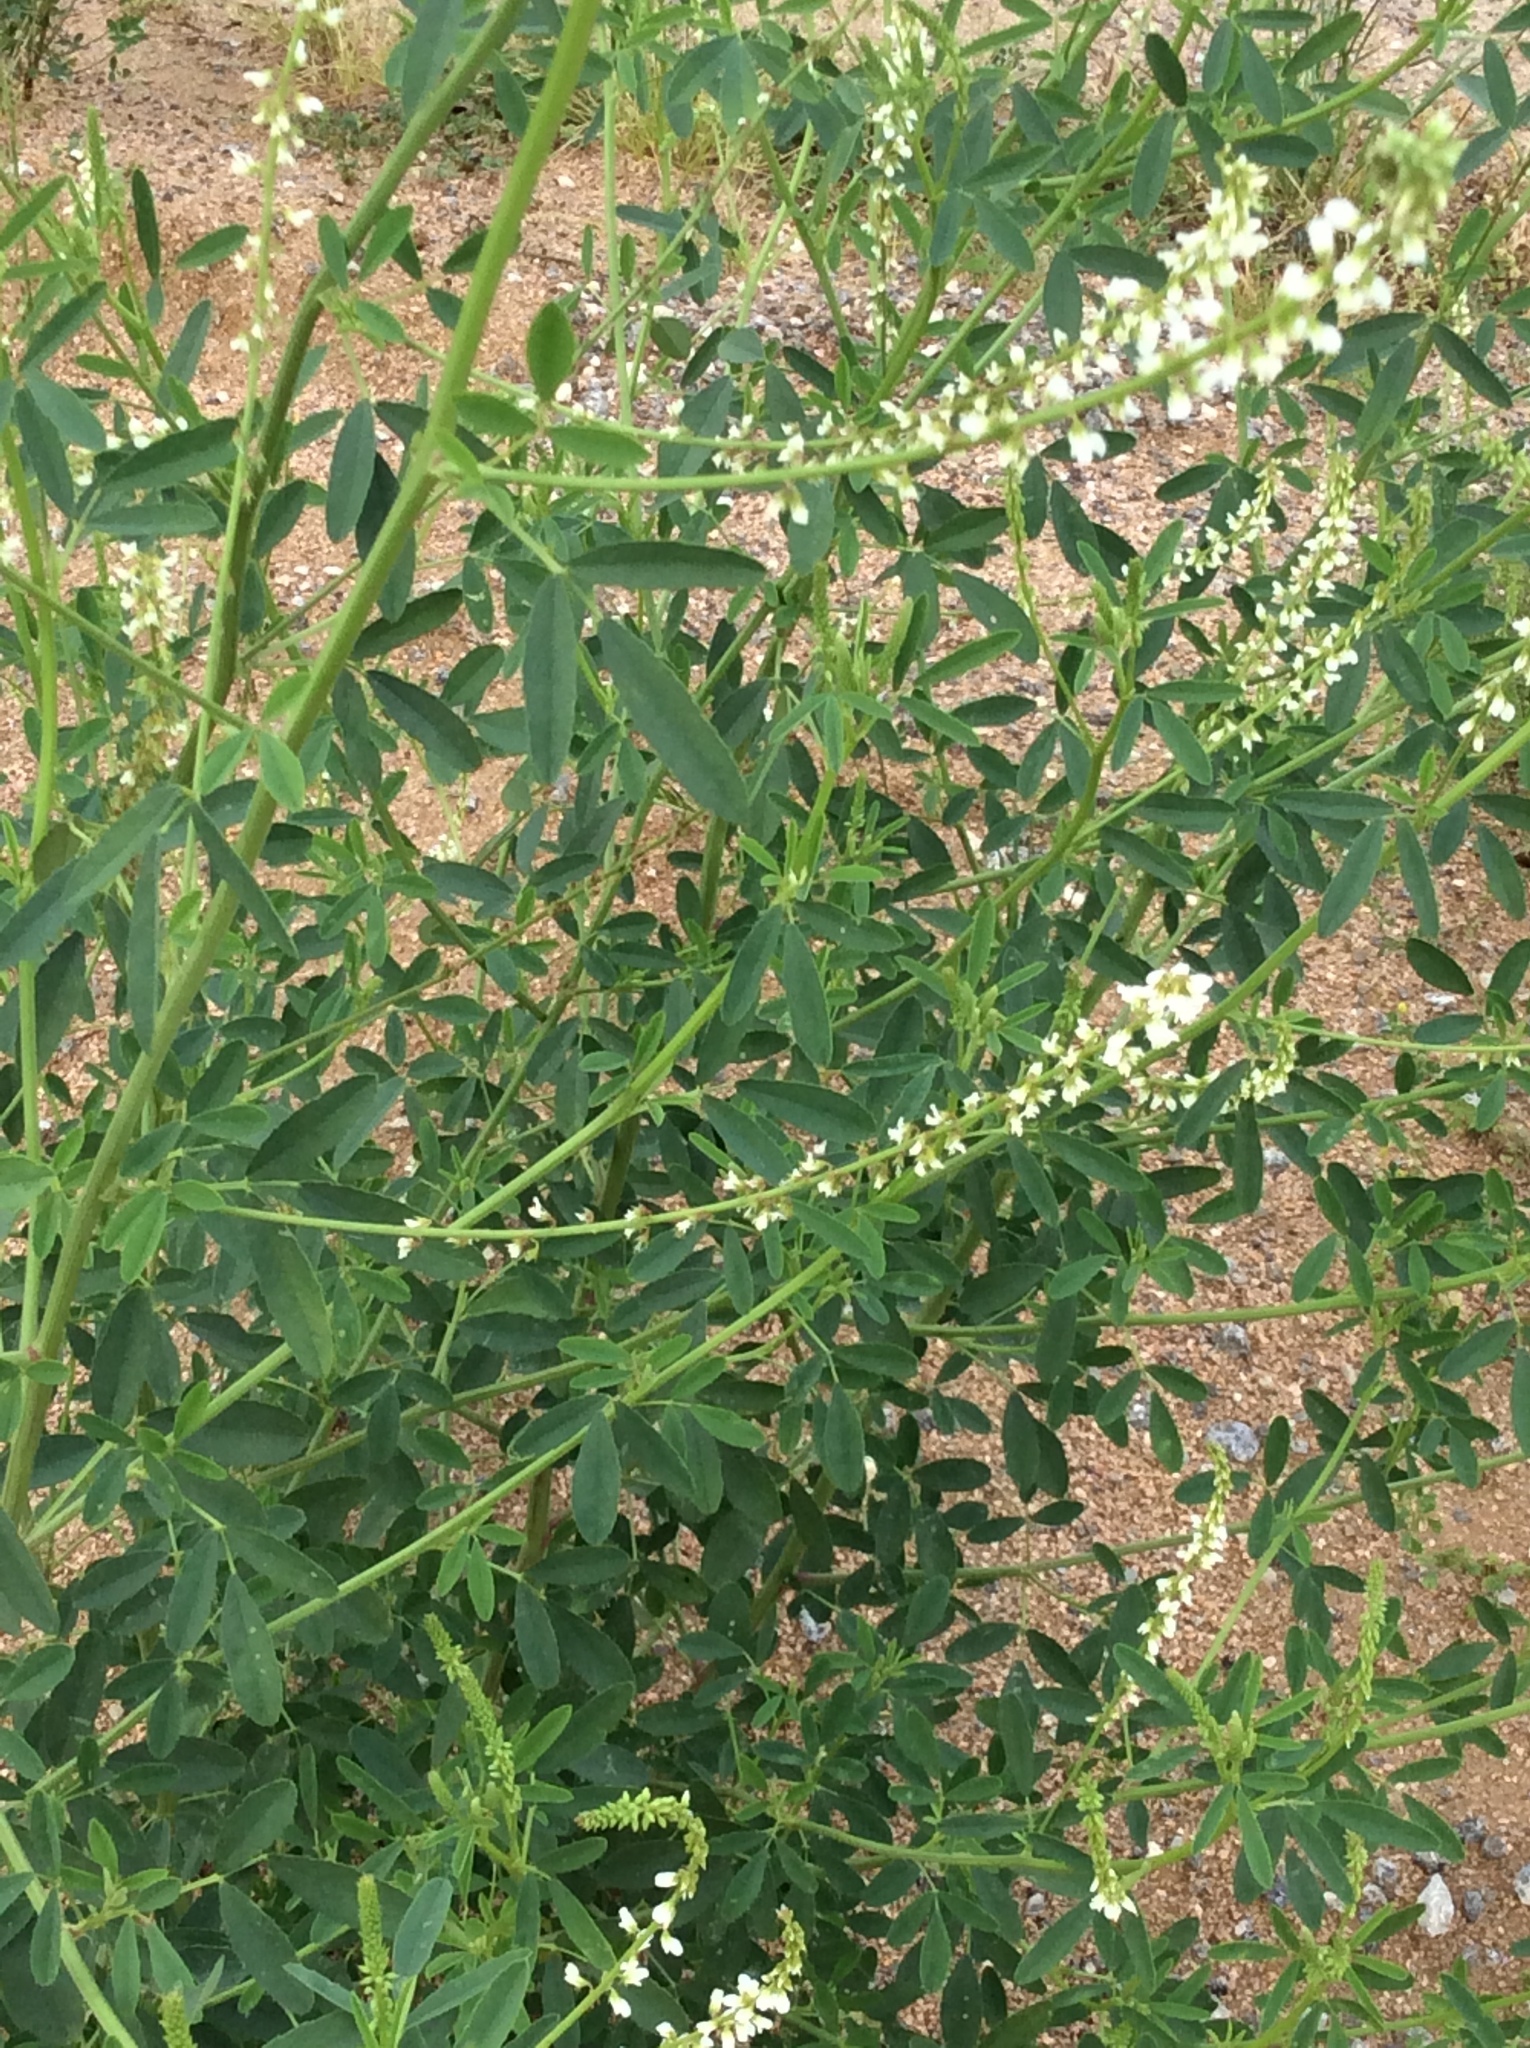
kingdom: Plantae
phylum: Tracheophyta
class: Magnoliopsida
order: Fabales
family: Fabaceae
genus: Melilotus
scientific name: Melilotus albus
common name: White melilot
